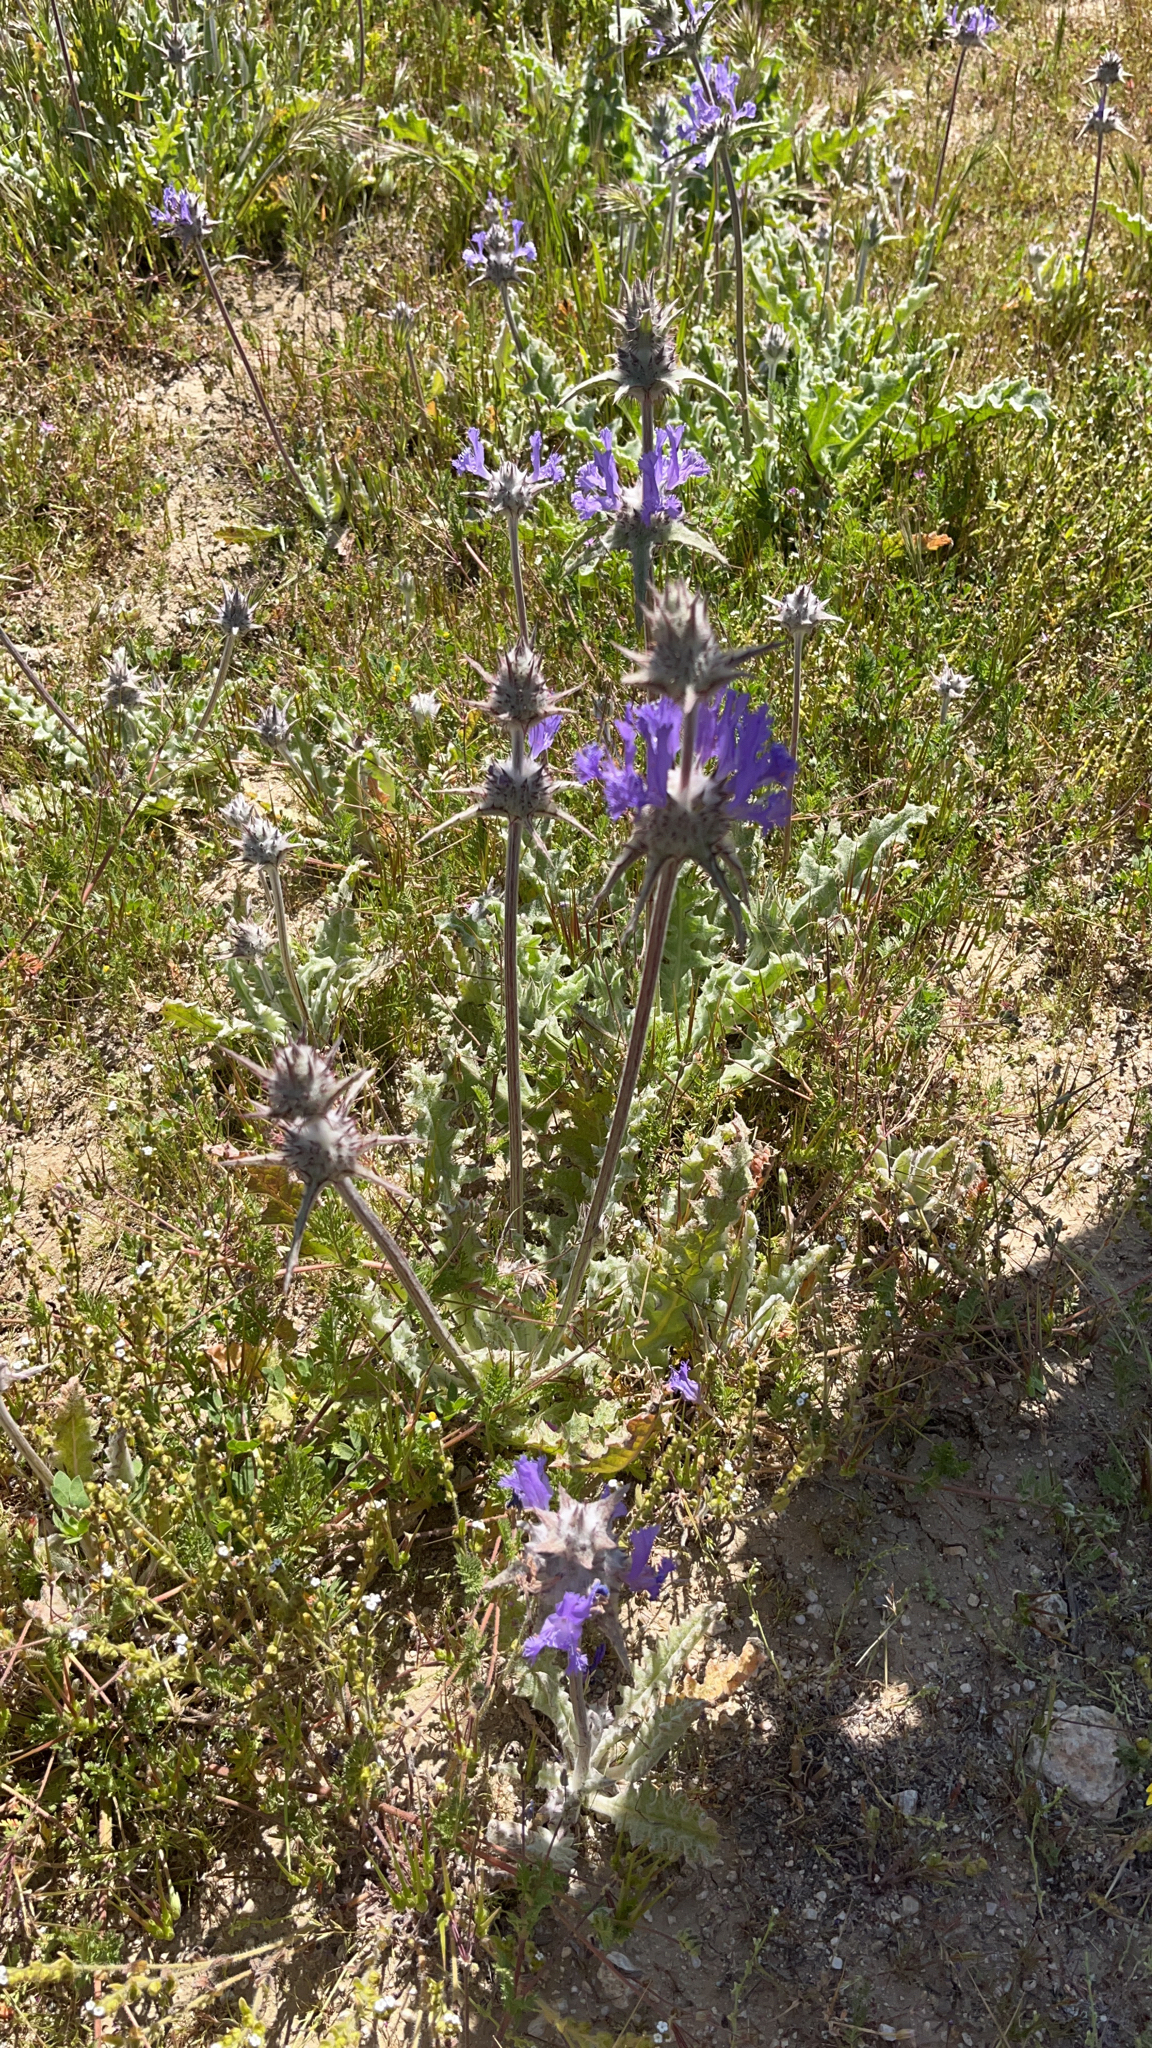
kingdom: Plantae
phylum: Tracheophyta
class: Magnoliopsida
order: Lamiales
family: Lamiaceae
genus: Salvia
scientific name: Salvia carduacea
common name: Thistle sage
